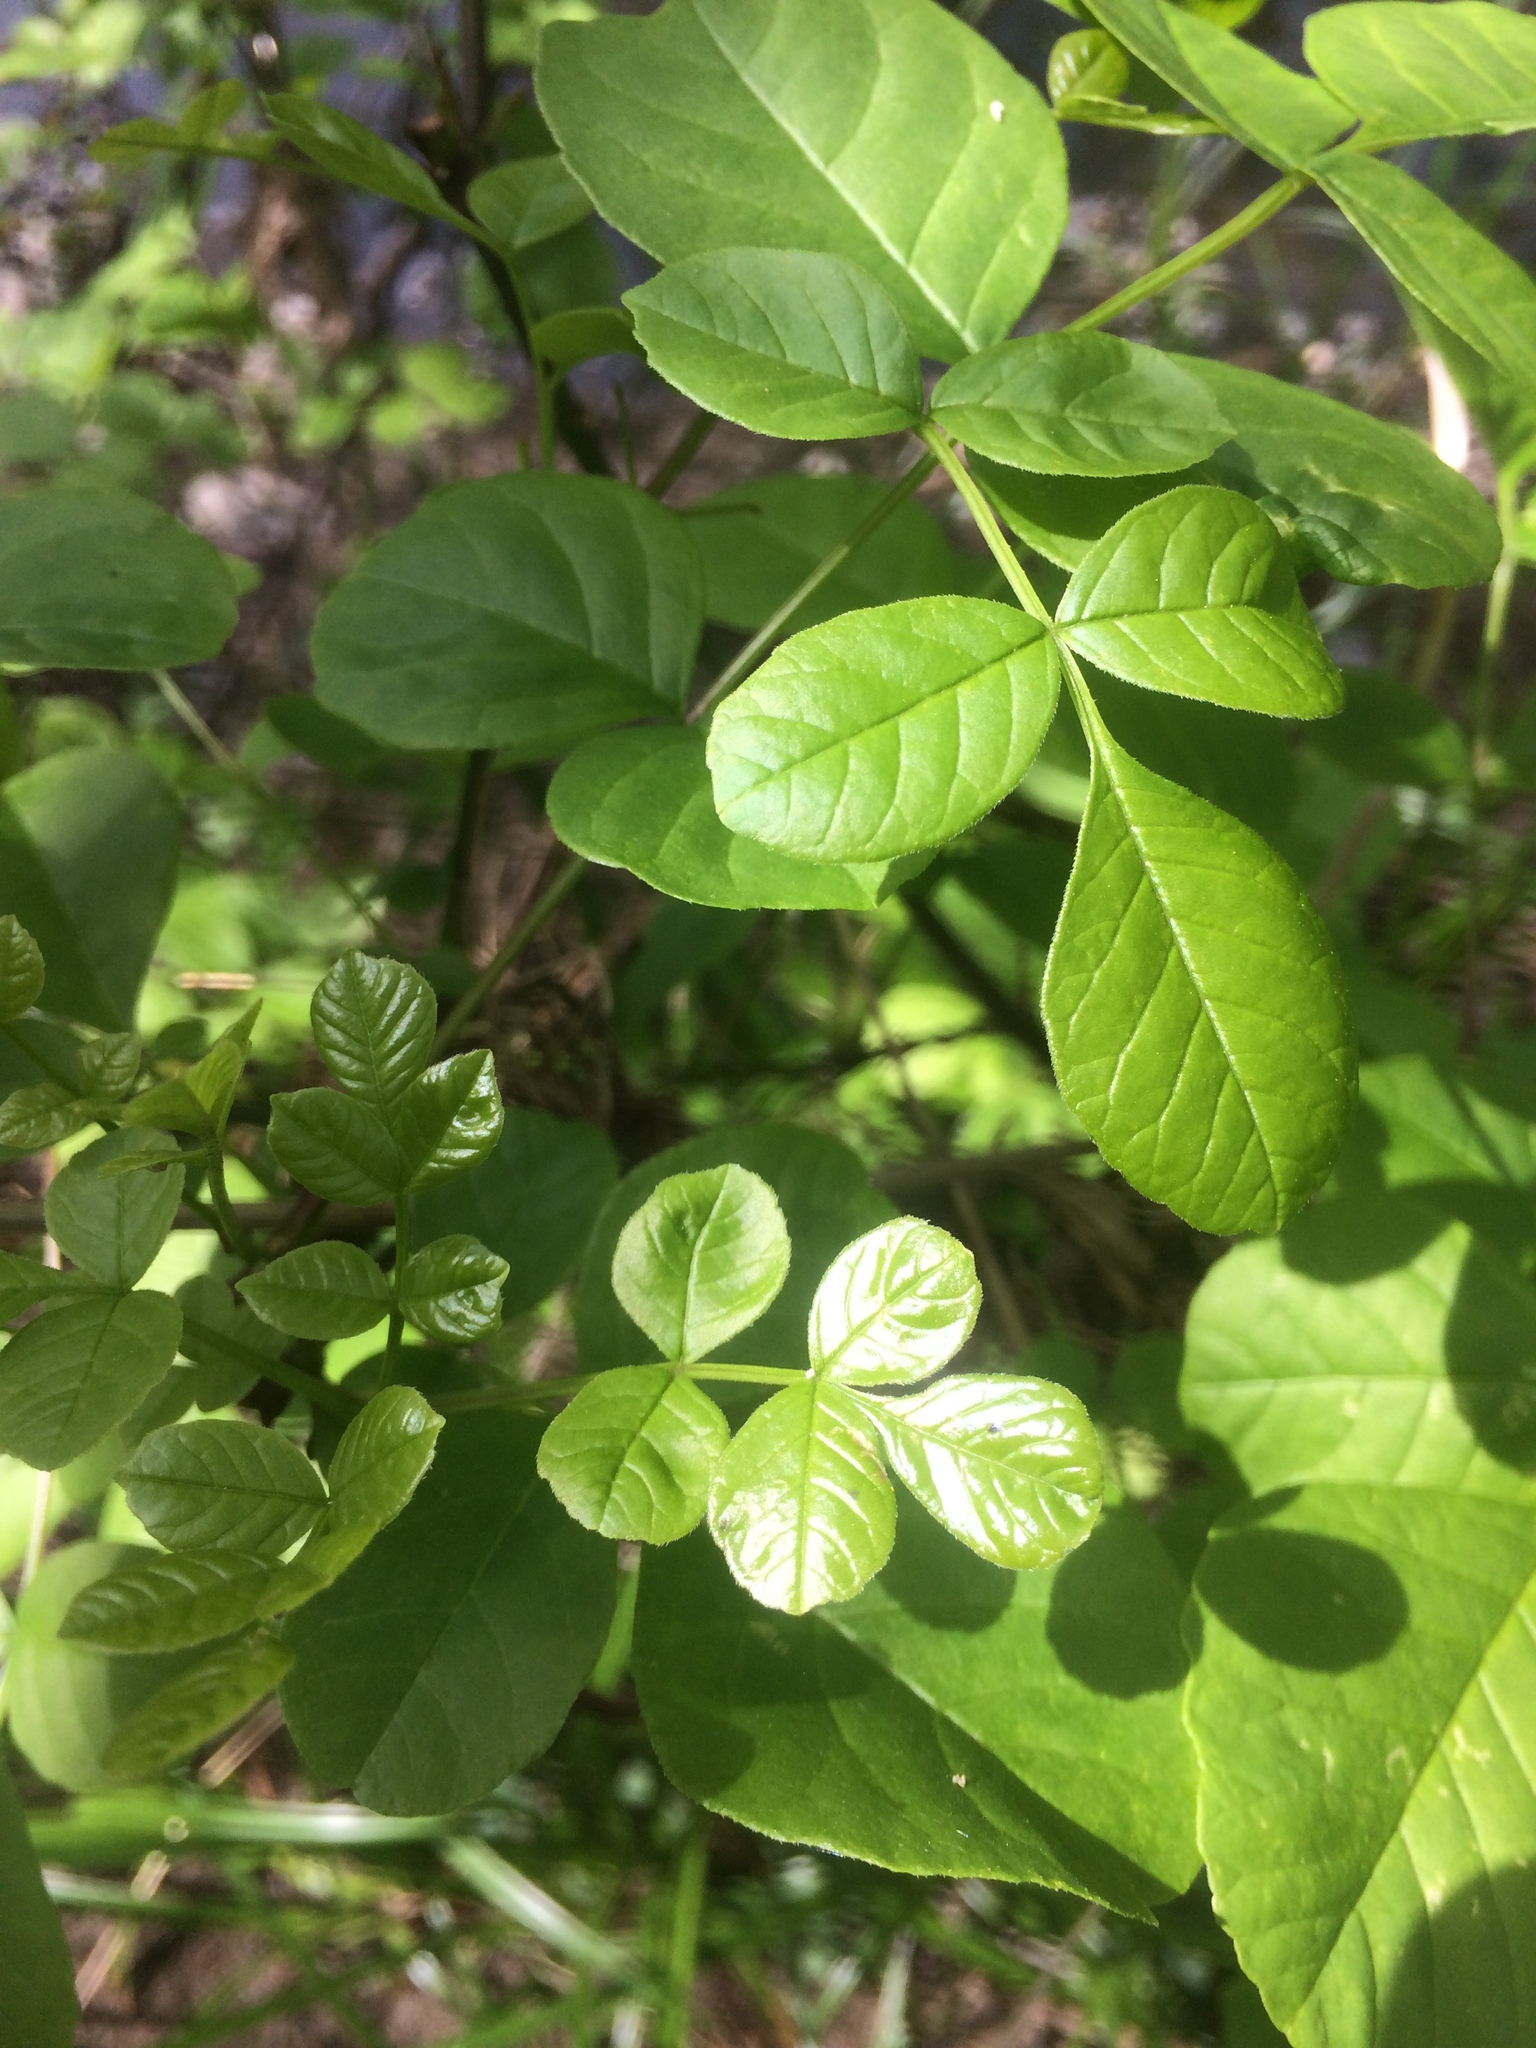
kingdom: Plantae
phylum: Tracheophyta
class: Magnoliopsida
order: Lamiales
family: Oleaceae
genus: Fraxinus
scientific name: Fraxinus latifolia
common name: Oregon ash
